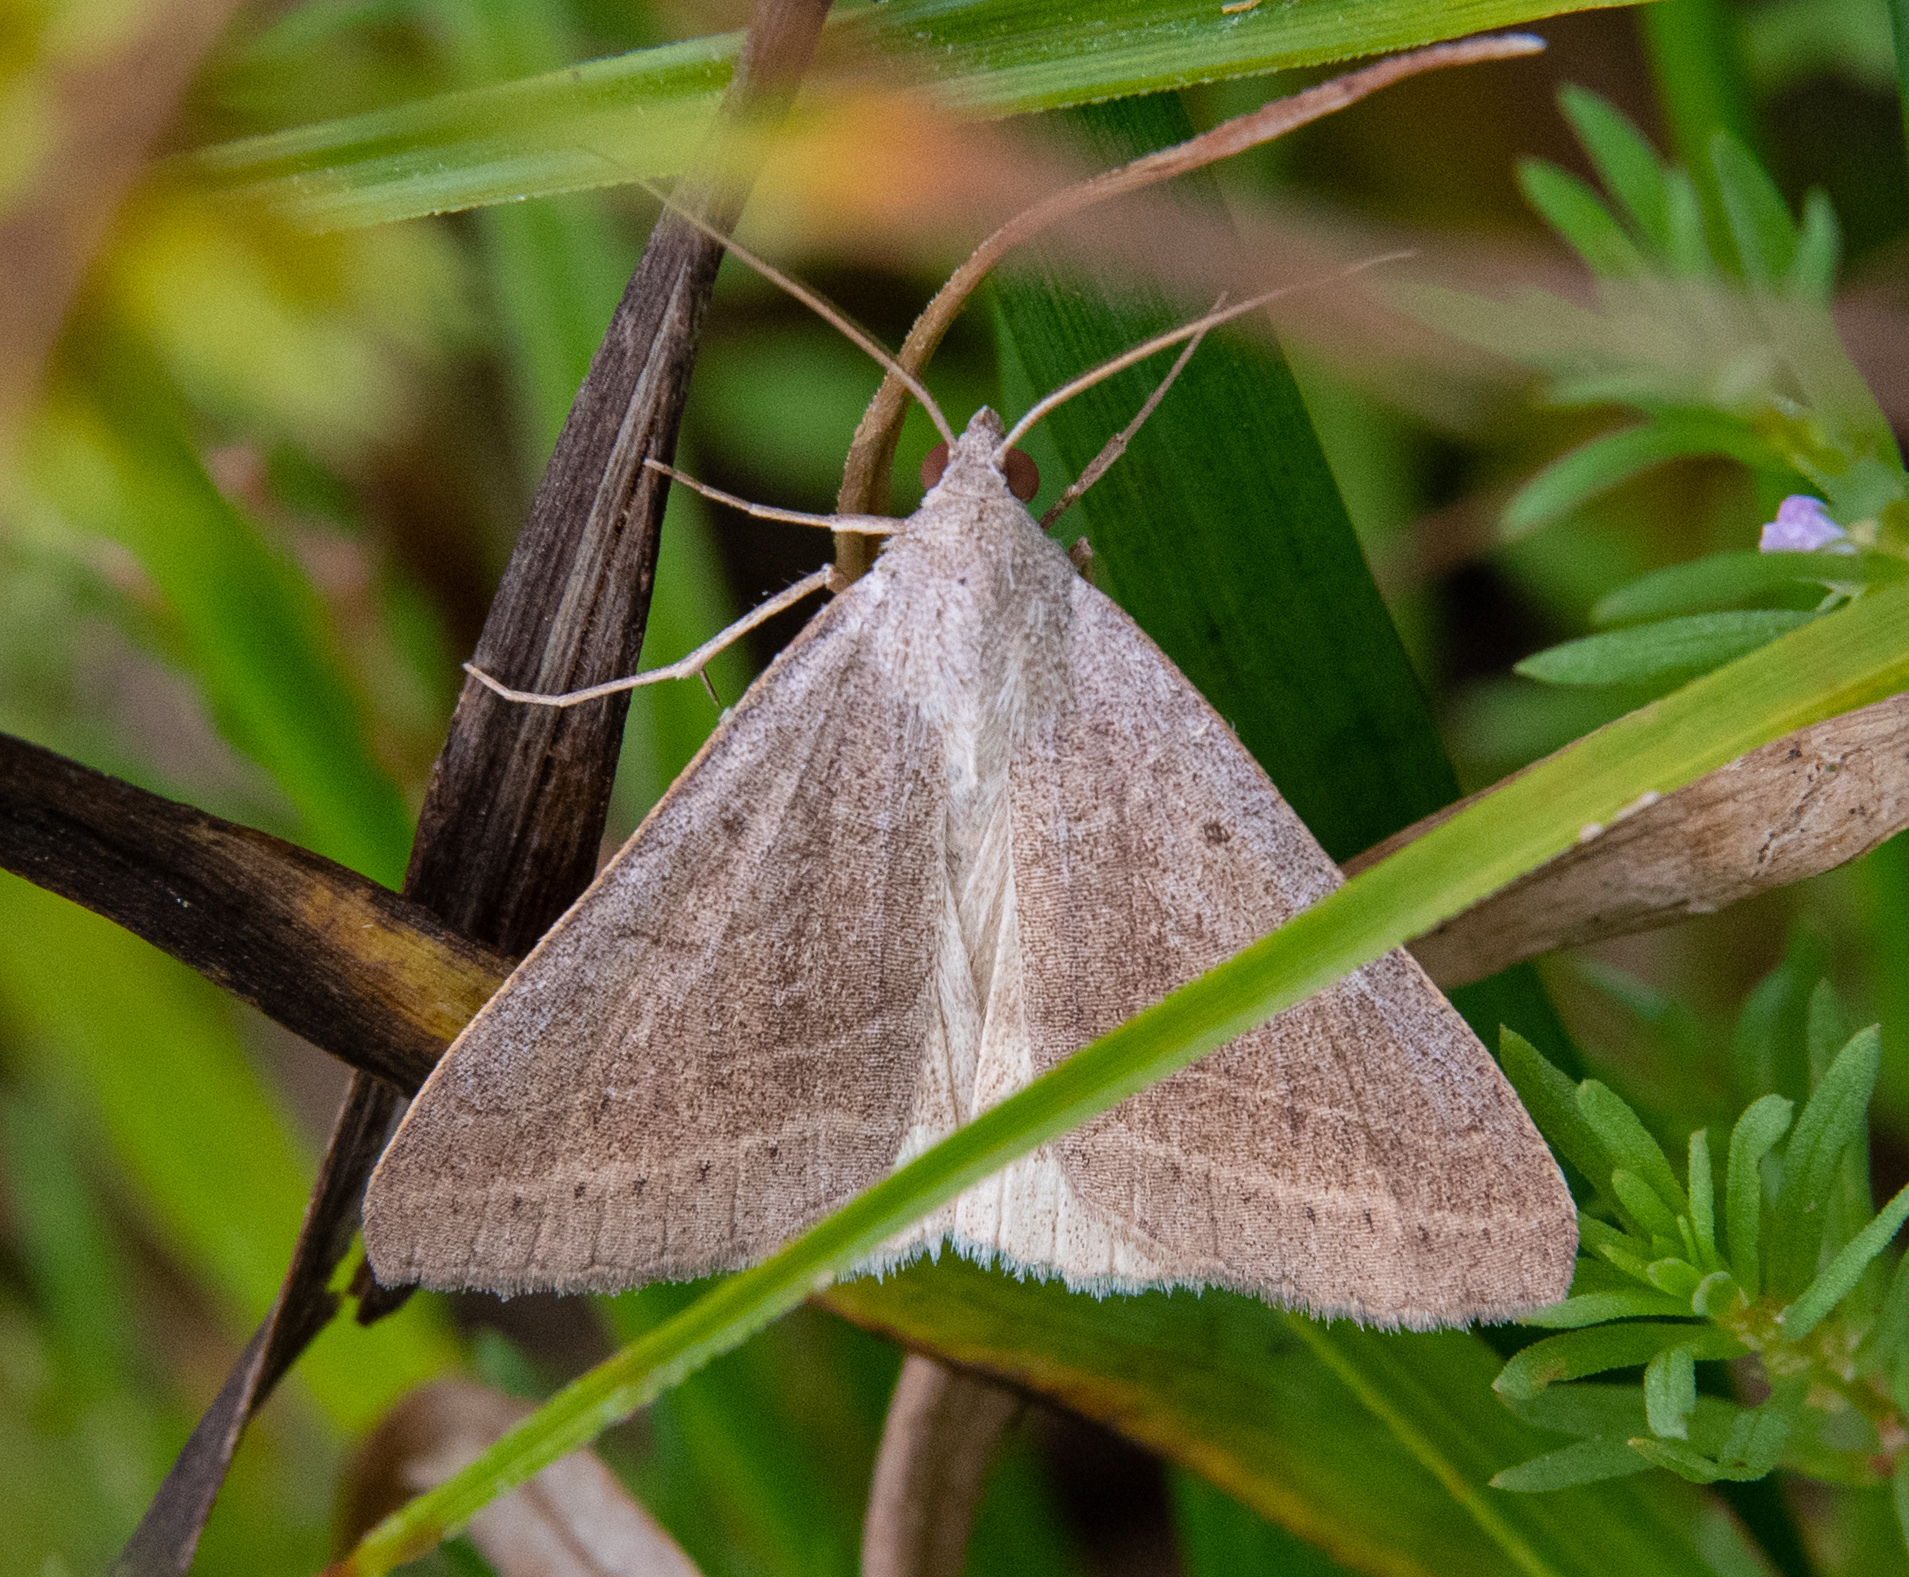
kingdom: Animalia
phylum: Arthropoda
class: Insecta
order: Lepidoptera
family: Erebidae
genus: Caenurgia
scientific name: Caenurgia togataria
